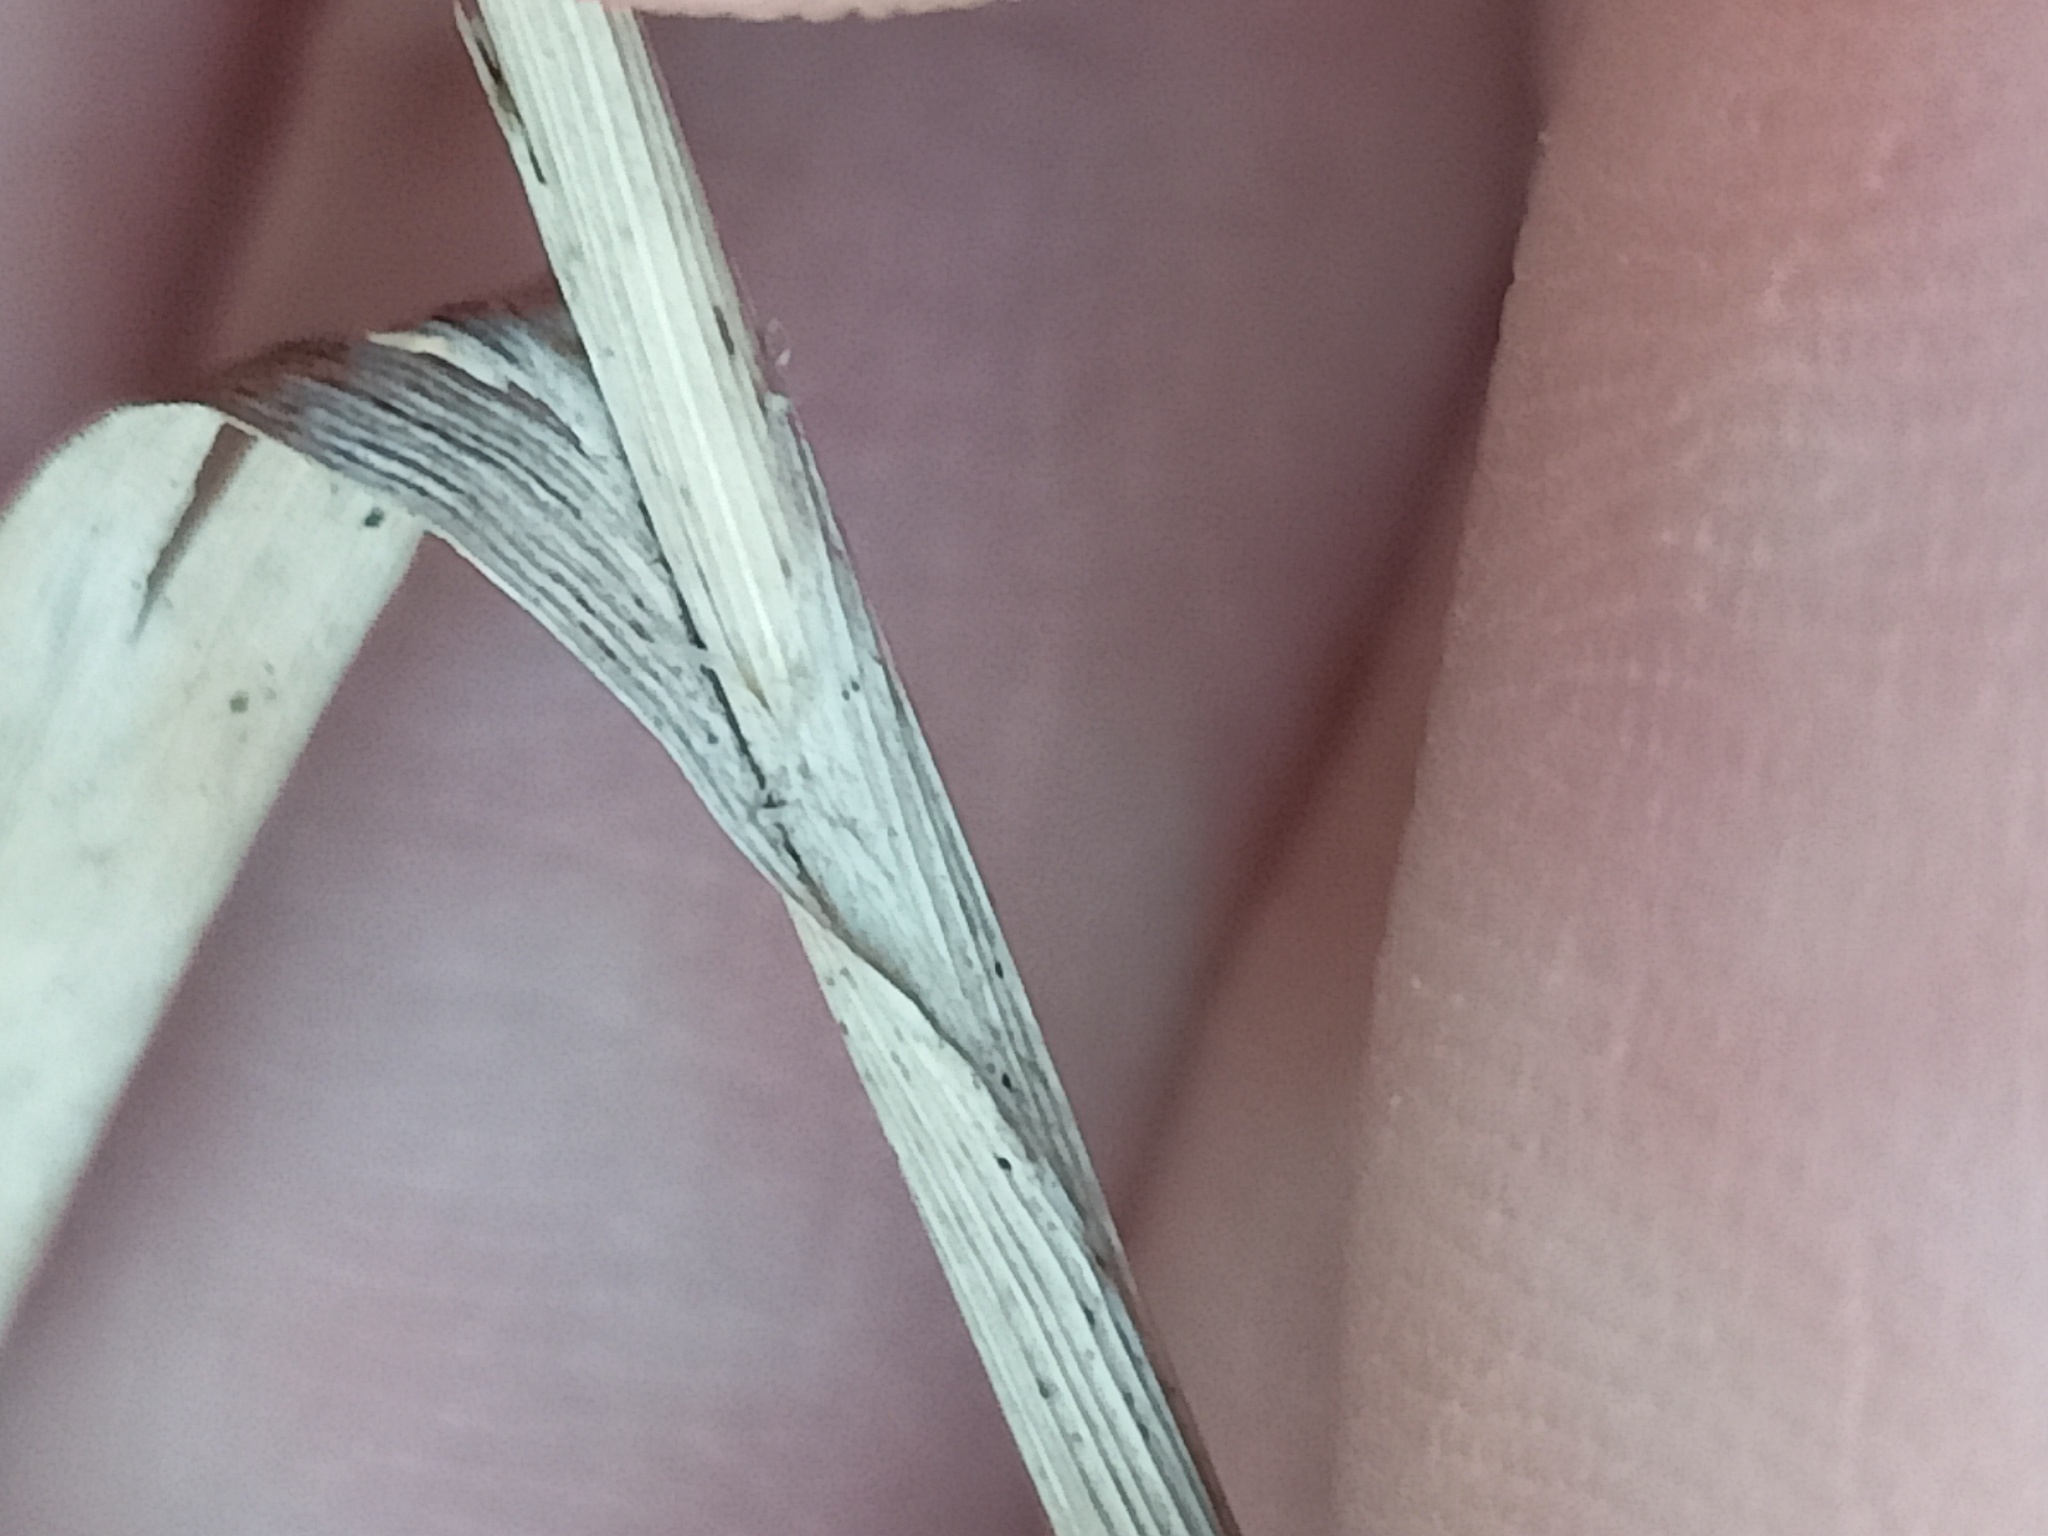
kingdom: Plantae
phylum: Tracheophyta
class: Liliopsida
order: Poales
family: Poaceae
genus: Calamagrostis
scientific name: Calamagrostis epigejos
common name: Wood small-reed
